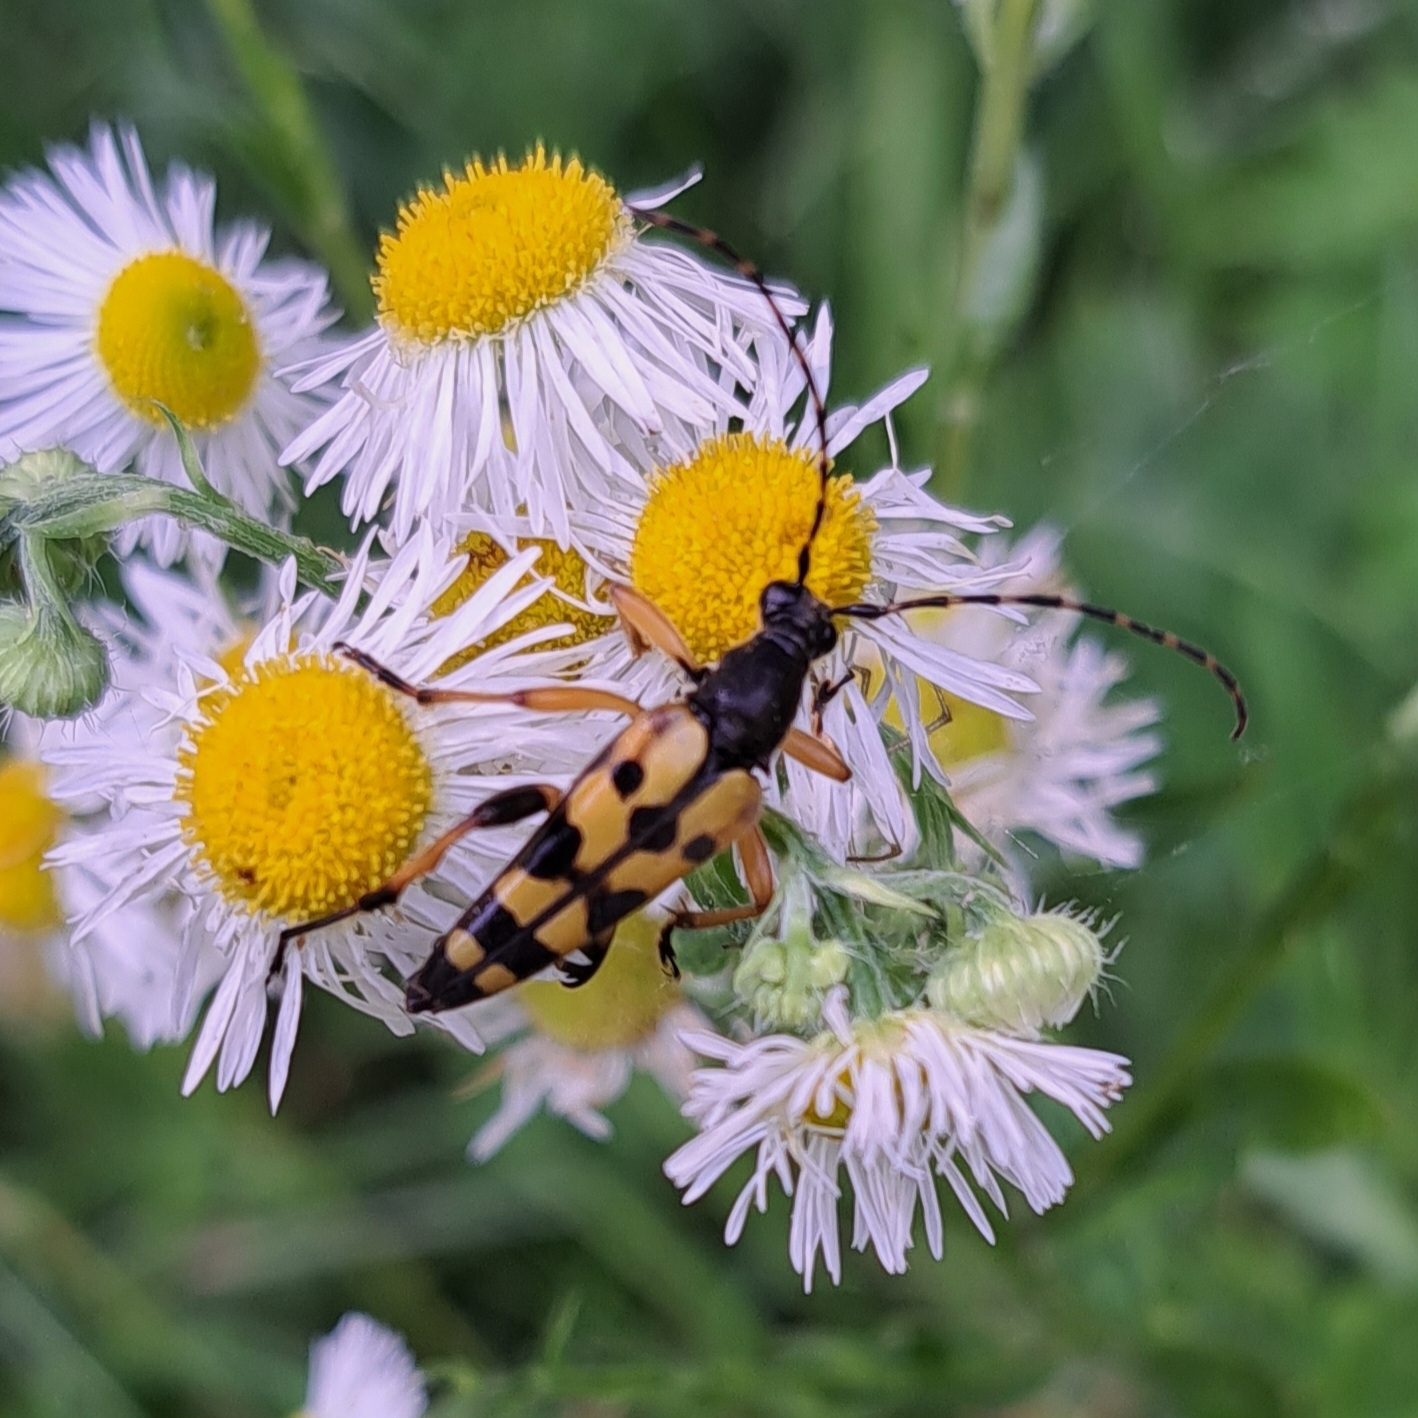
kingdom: Animalia
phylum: Arthropoda
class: Insecta
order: Coleoptera
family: Cerambycidae
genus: Rutpela
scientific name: Rutpela maculata
